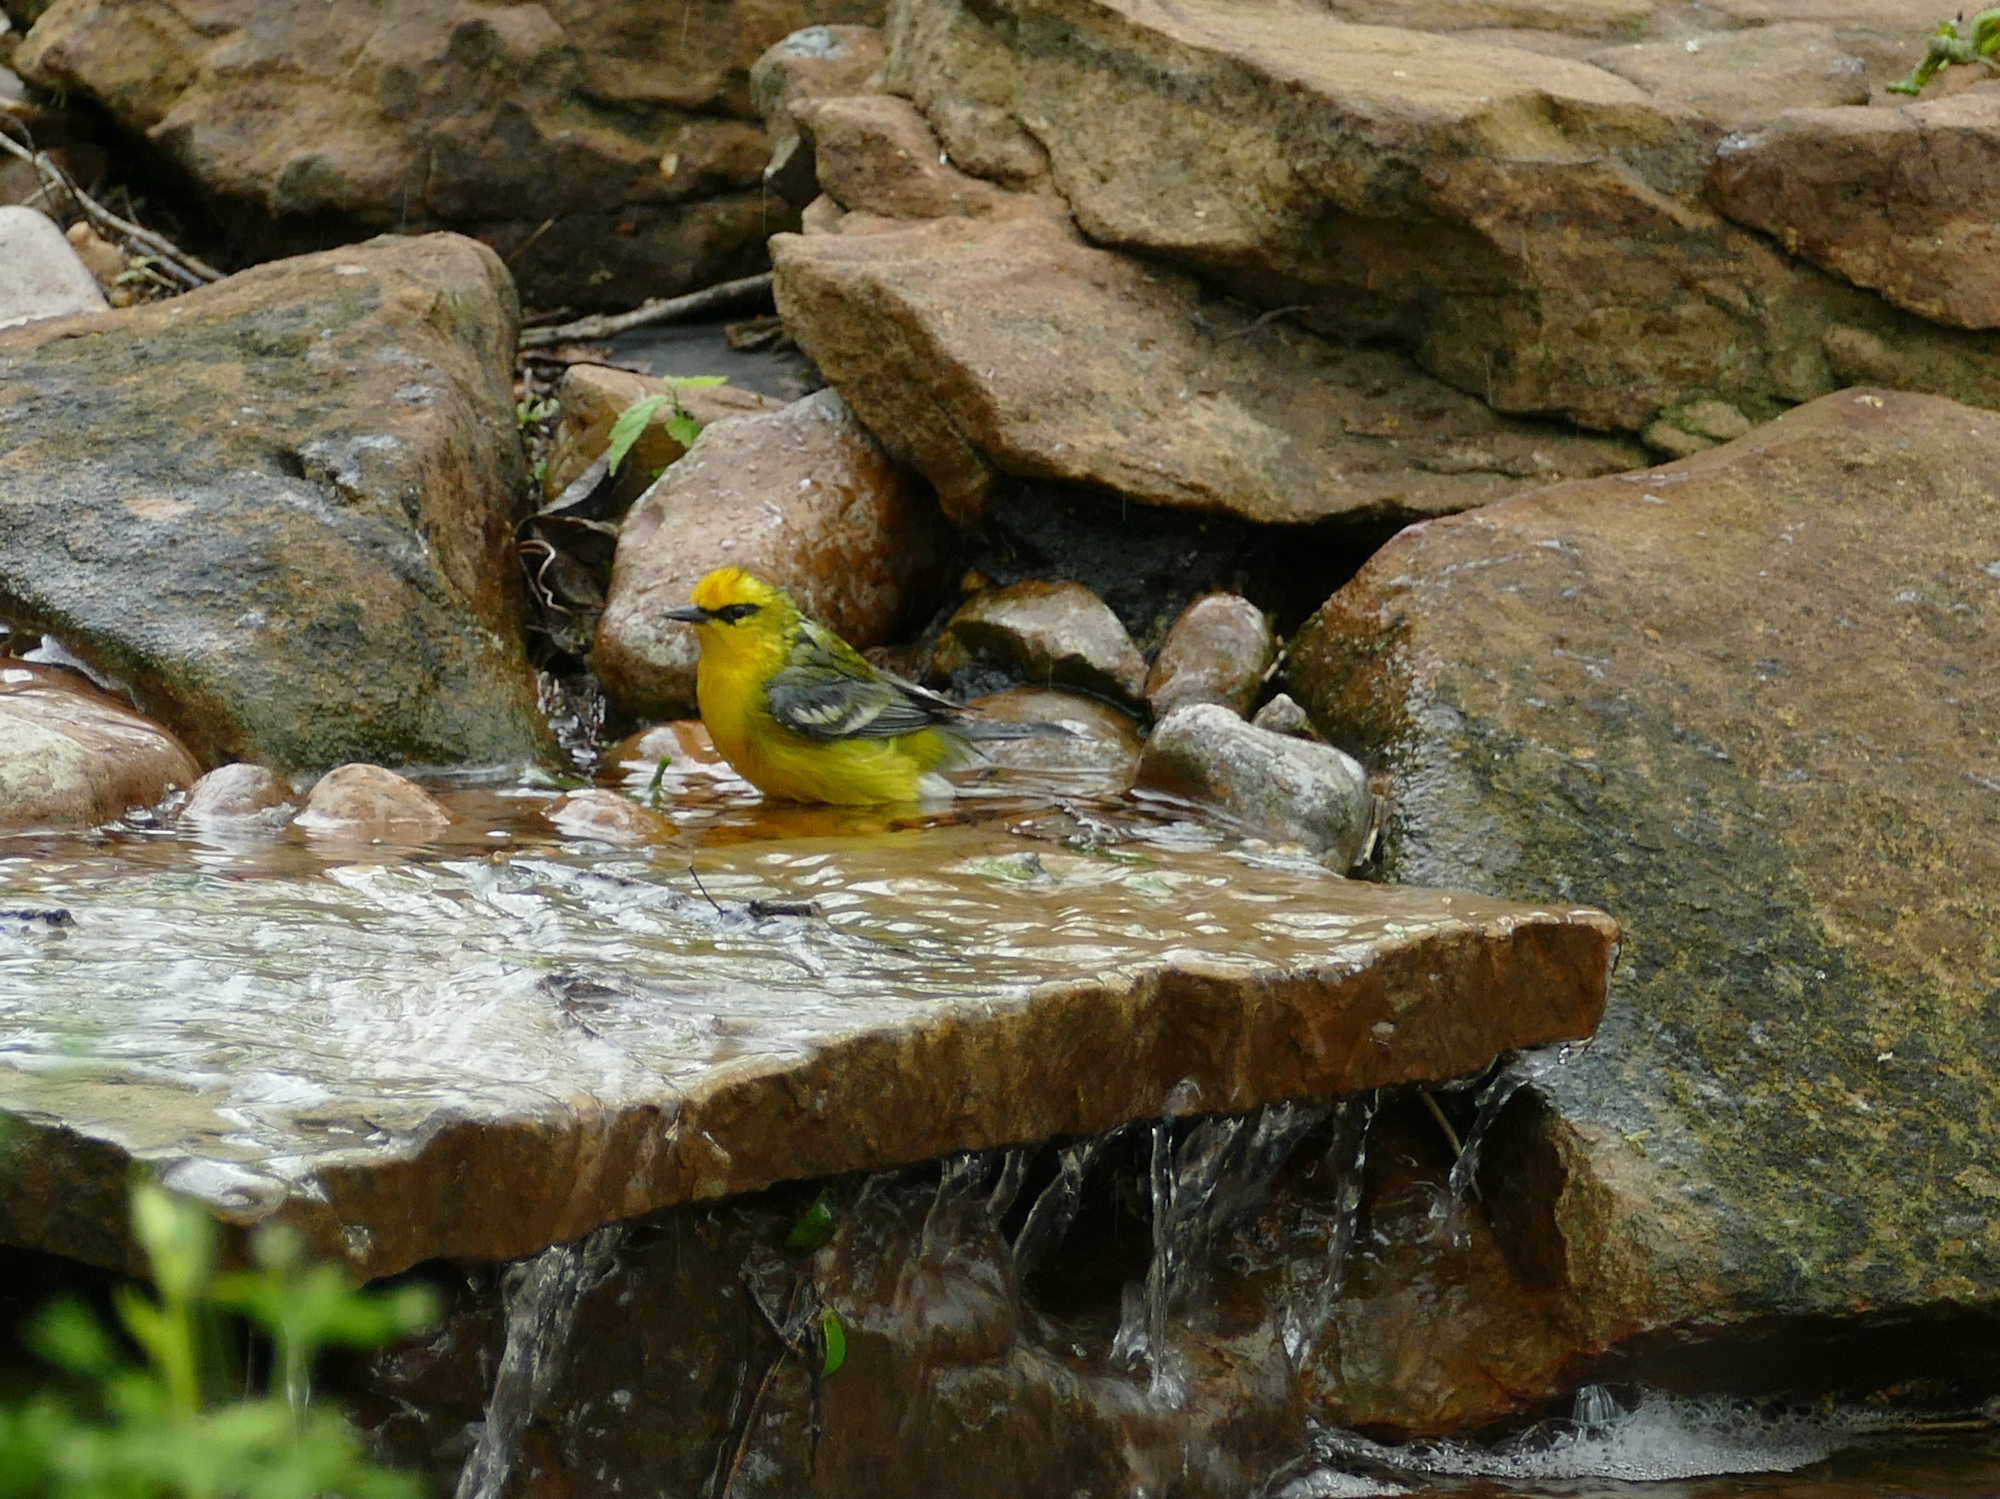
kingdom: Animalia
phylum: Chordata
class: Aves
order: Passeriformes
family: Parulidae
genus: Vermivora
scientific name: Vermivora cyanoptera
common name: Blue-winged warbler
